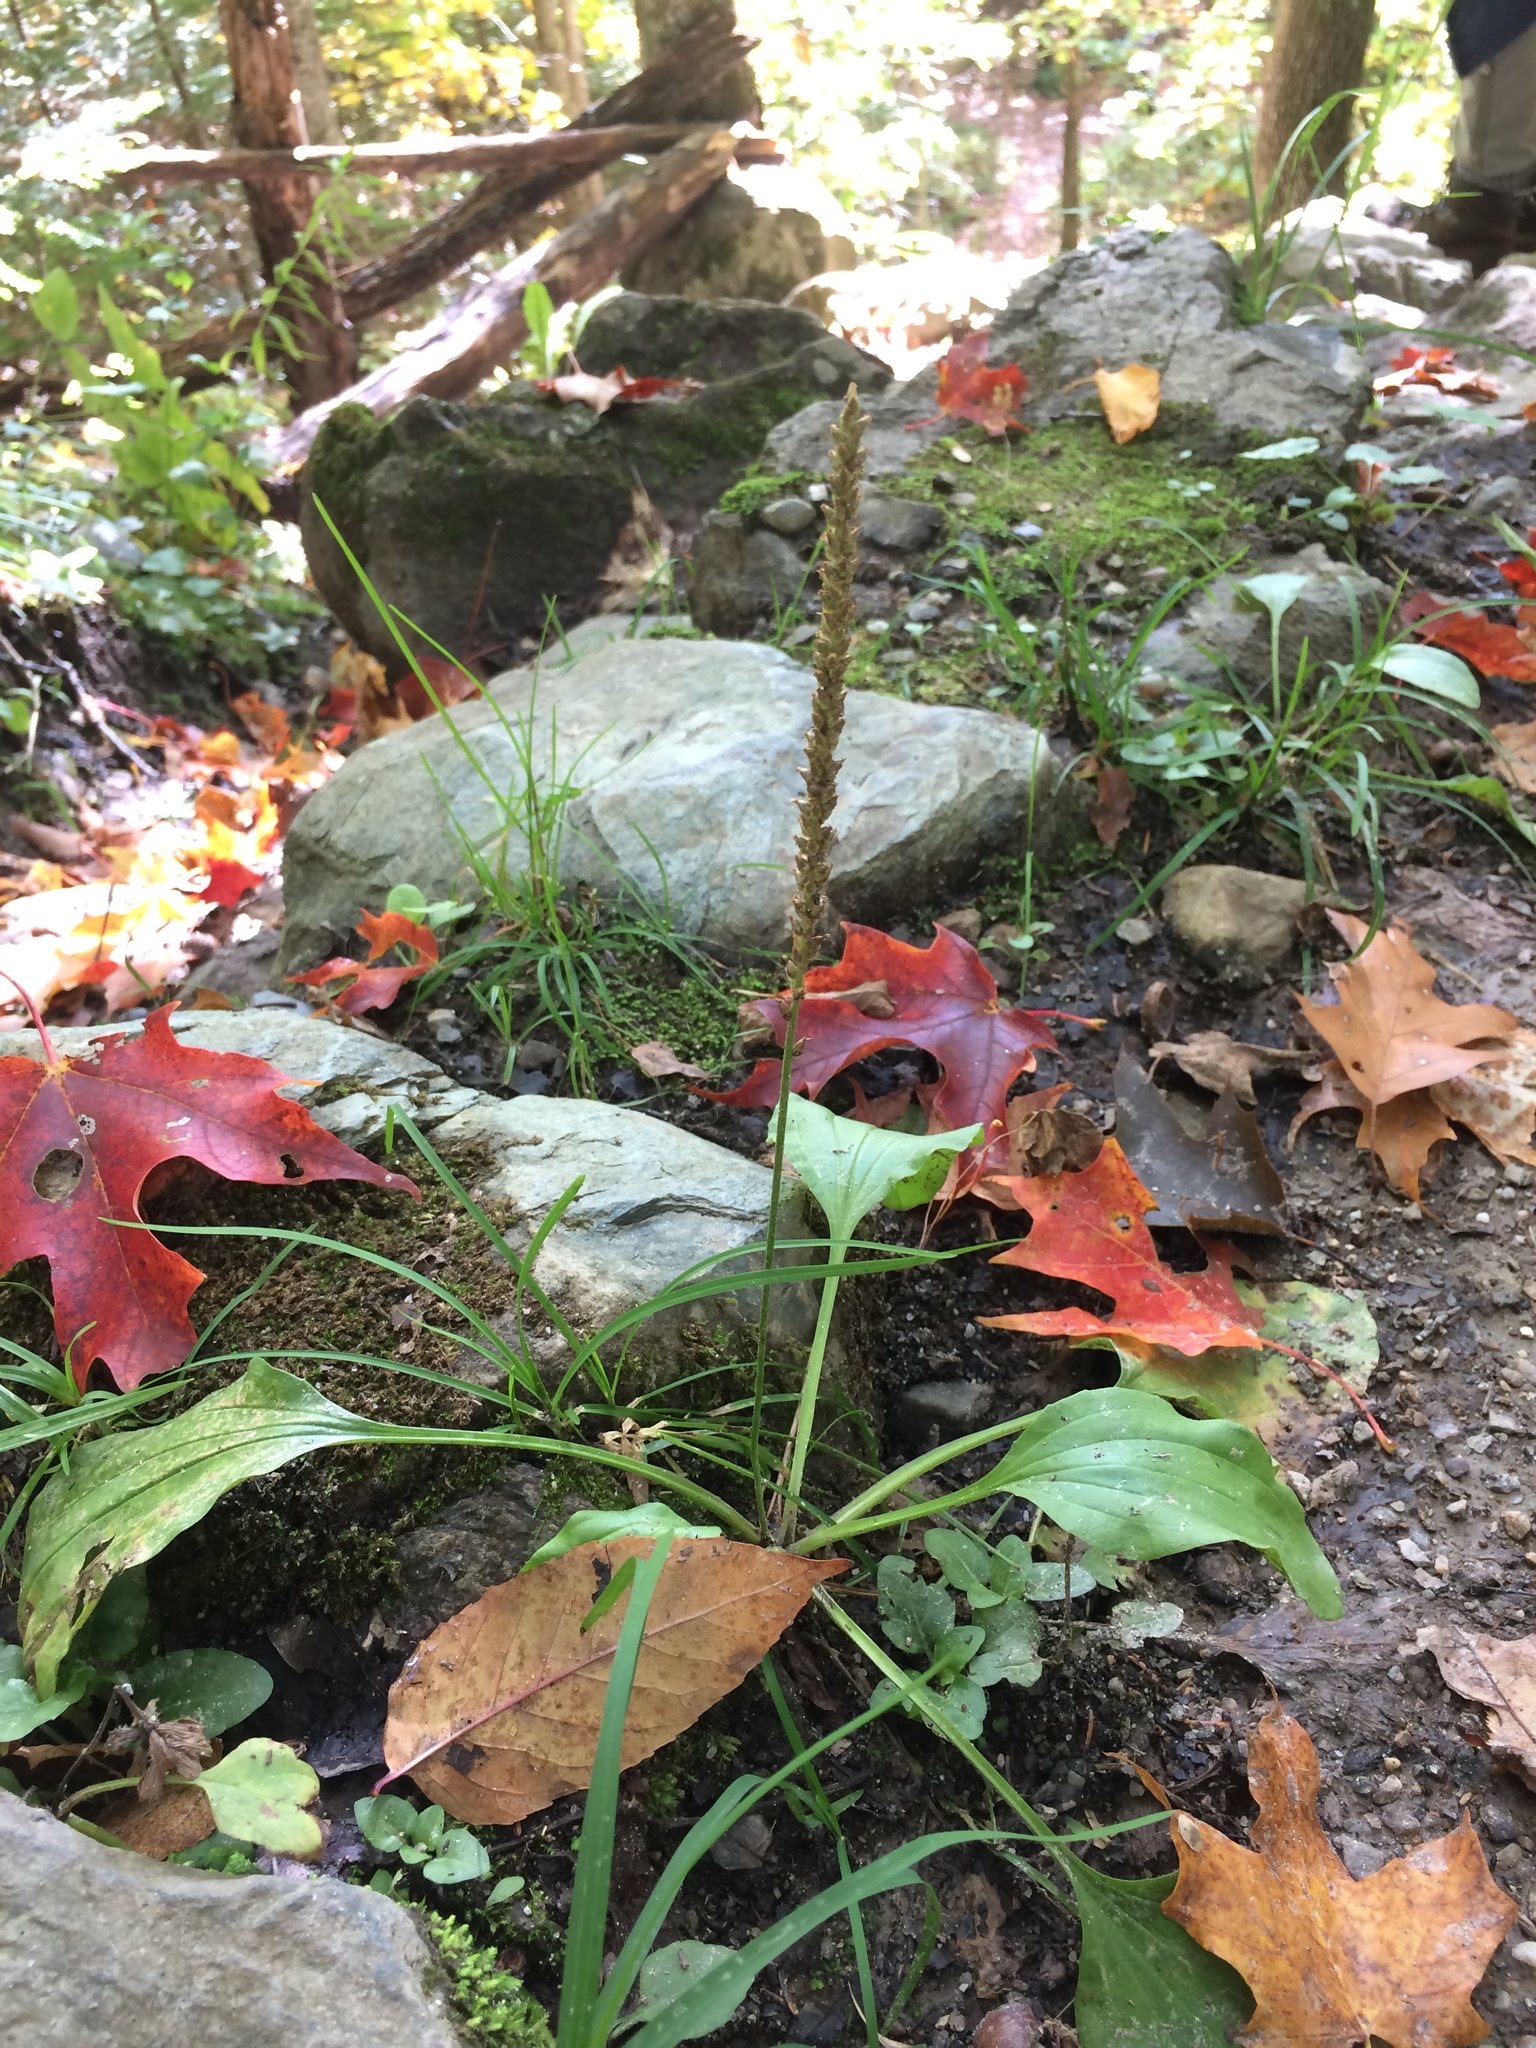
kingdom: Plantae
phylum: Tracheophyta
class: Magnoliopsida
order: Lamiales
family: Plantaginaceae
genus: Plantago
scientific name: Plantago major
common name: Common plantain
